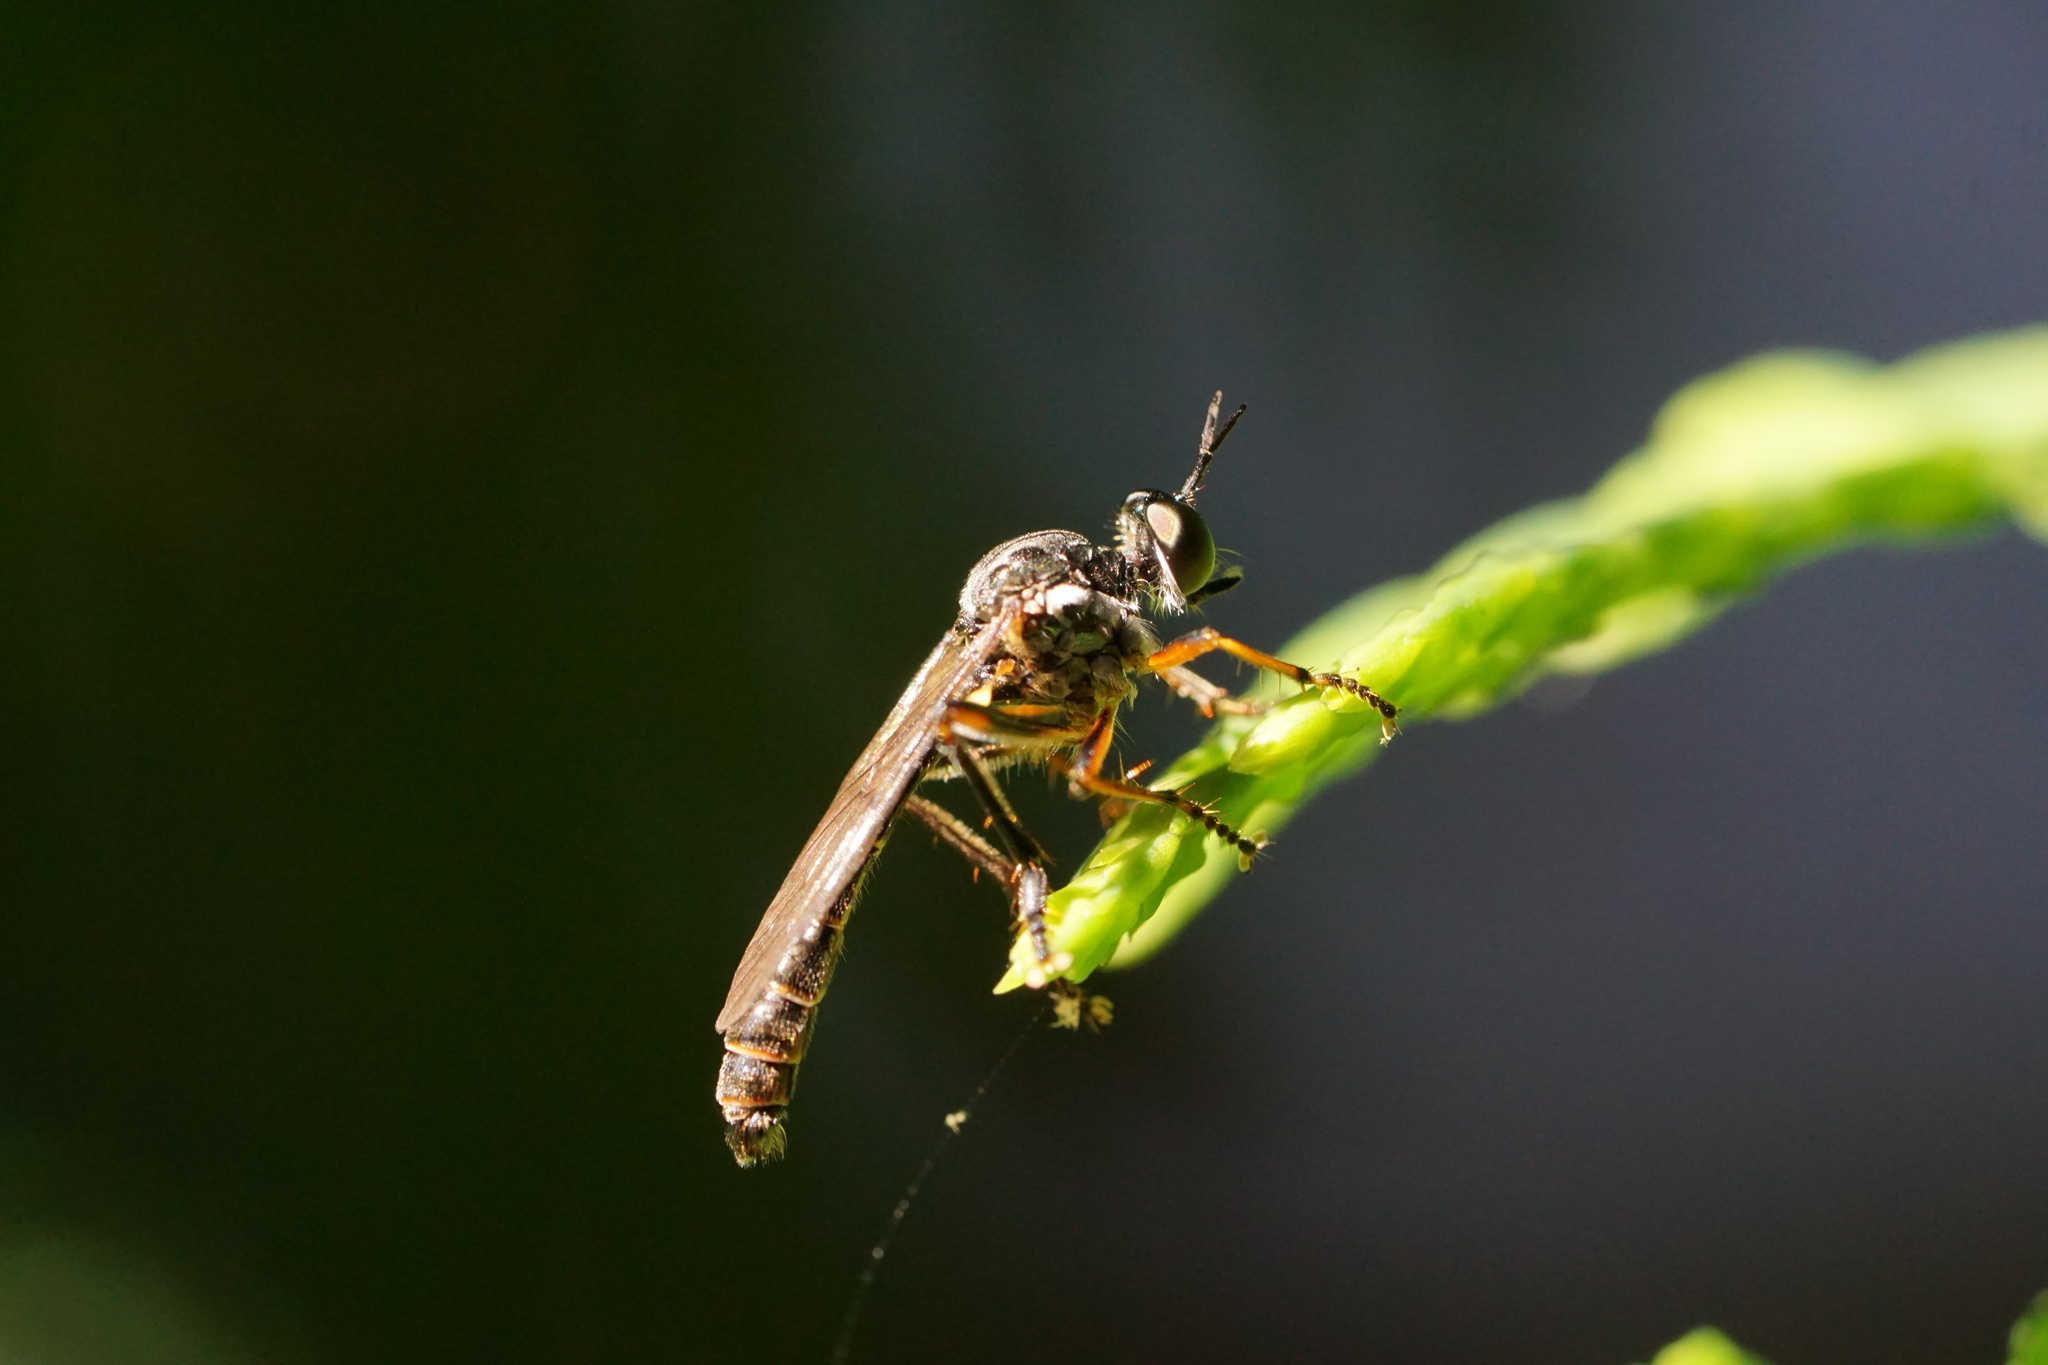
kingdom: Animalia
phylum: Arthropoda
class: Insecta
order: Diptera
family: Asilidae
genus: Dioctria
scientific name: Dioctria hyalipennis
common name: Stripe-legged robberfly
